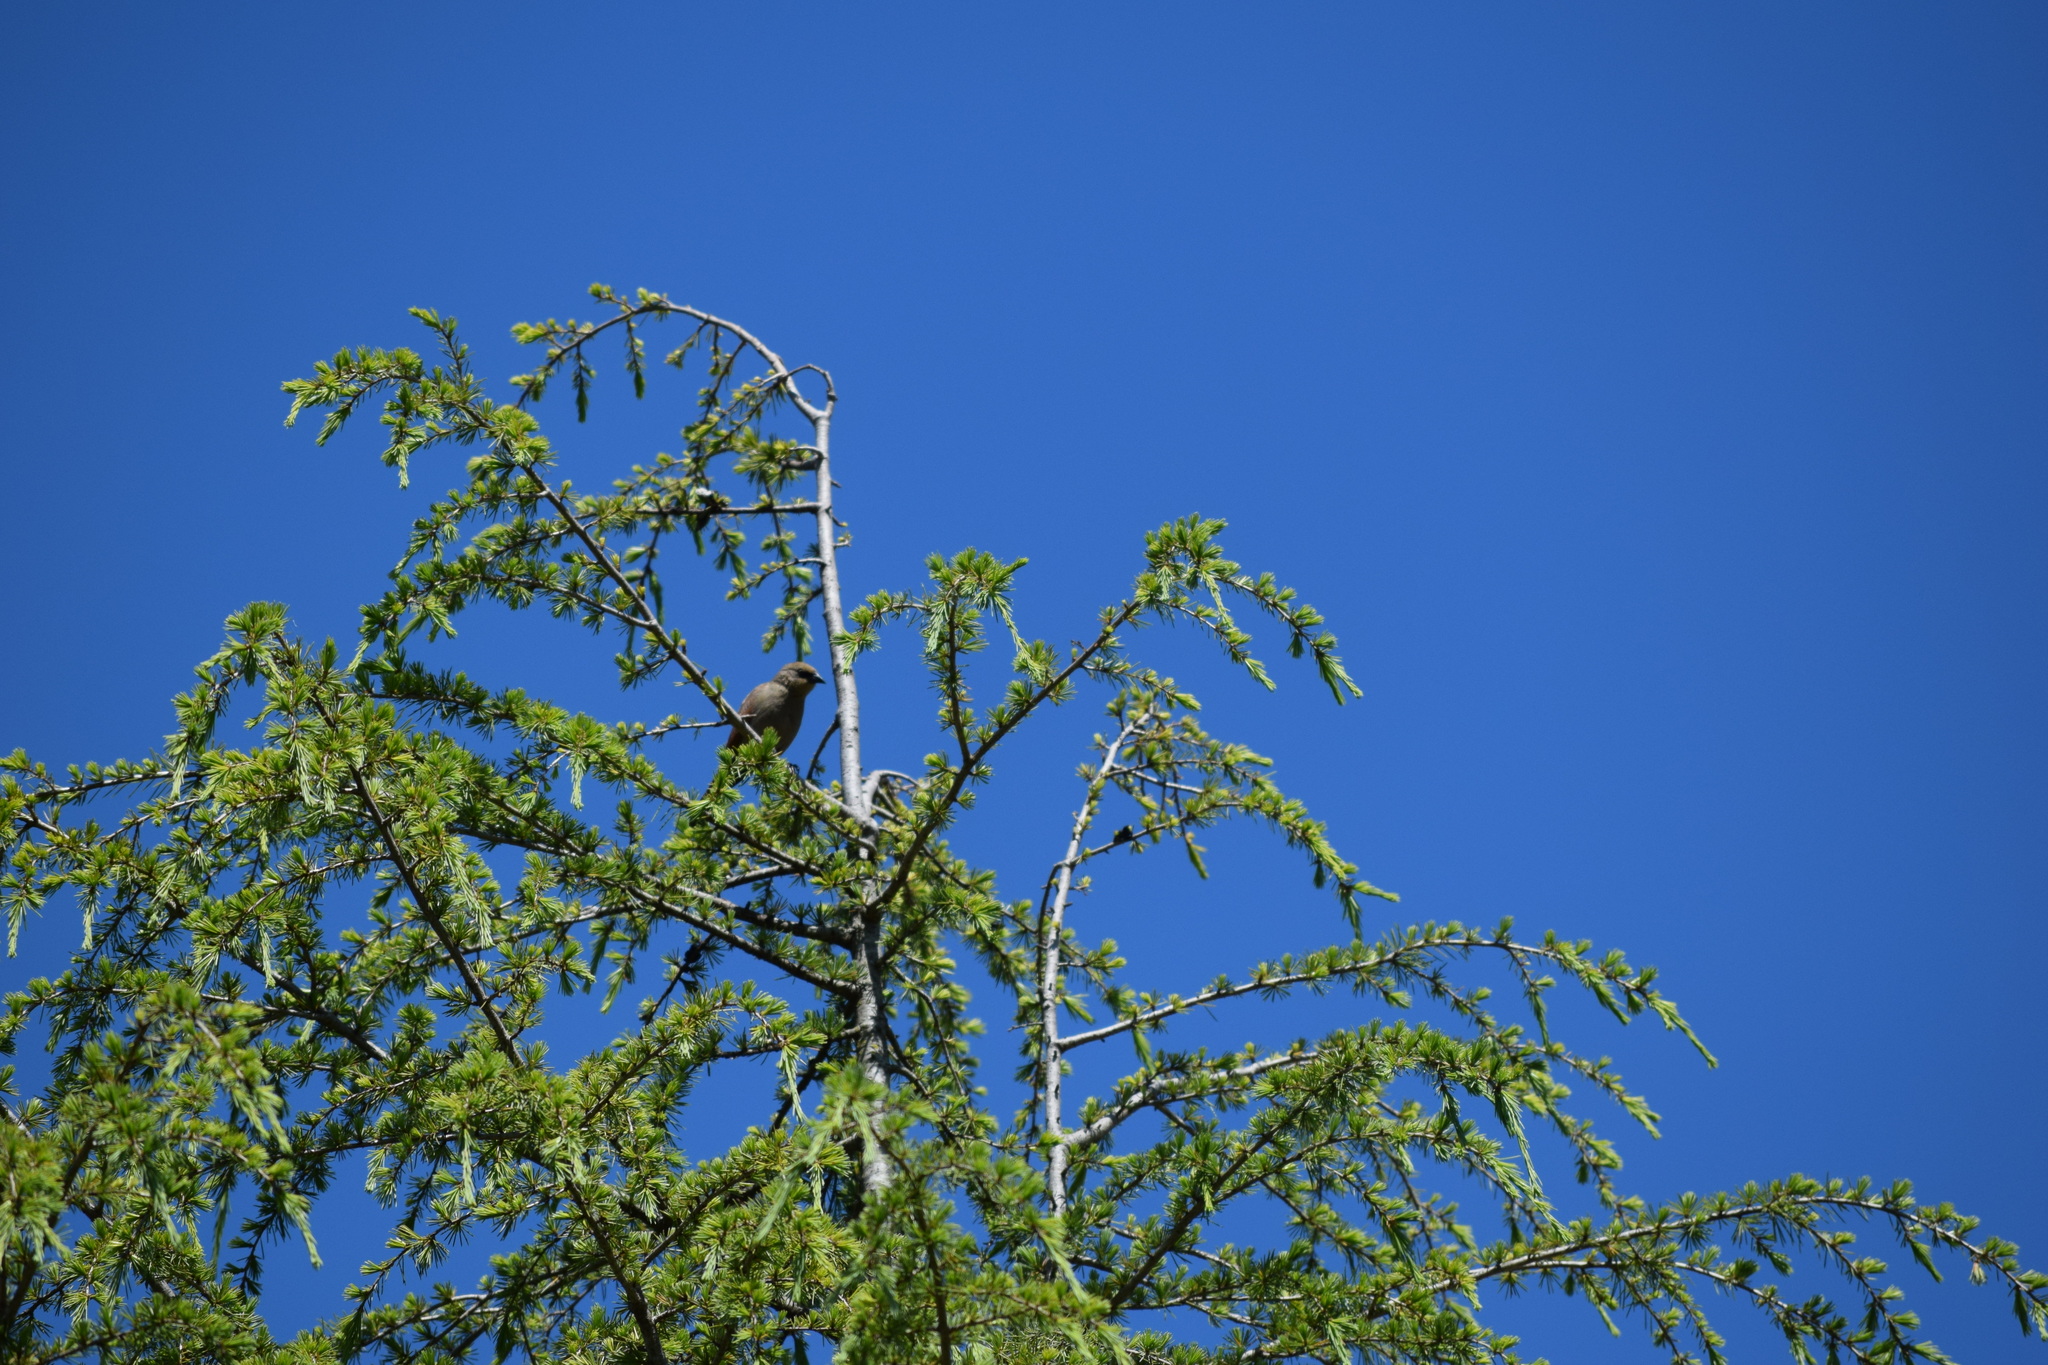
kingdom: Animalia
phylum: Chordata
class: Aves
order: Passeriformes
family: Icteridae
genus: Agelaioides
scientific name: Agelaioides badius
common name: Baywing
